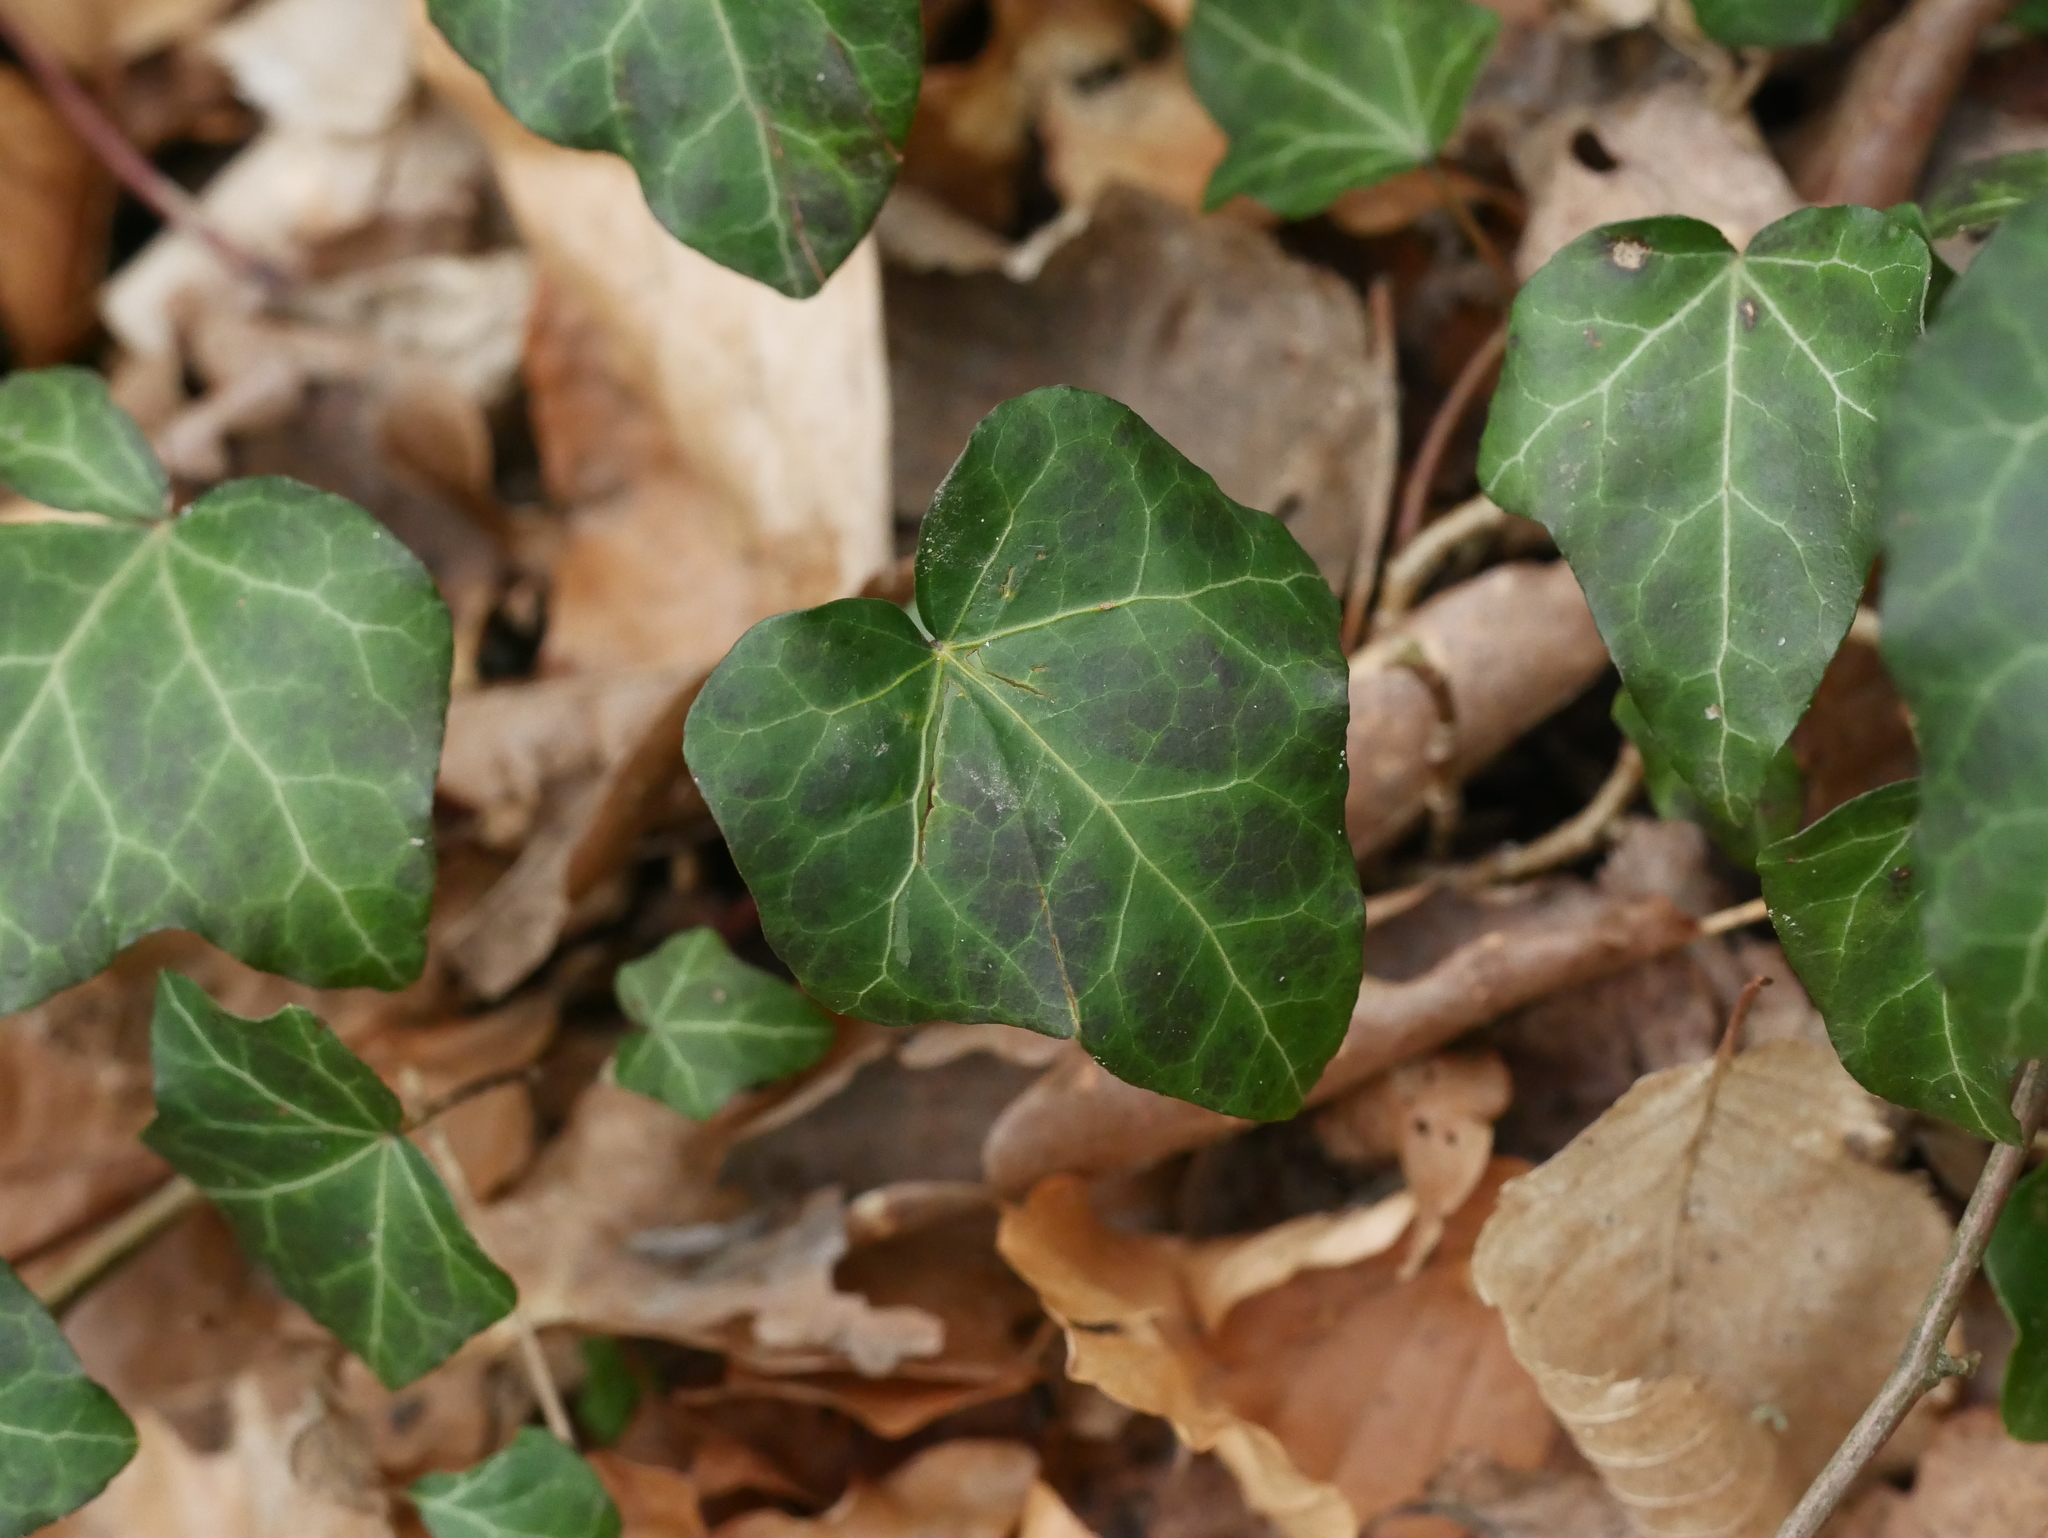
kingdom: Plantae
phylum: Tracheophyta
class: Magnoliopsida
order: Apiales
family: Araliaceae
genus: Hedera
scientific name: Hedera helix
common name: Ivy
